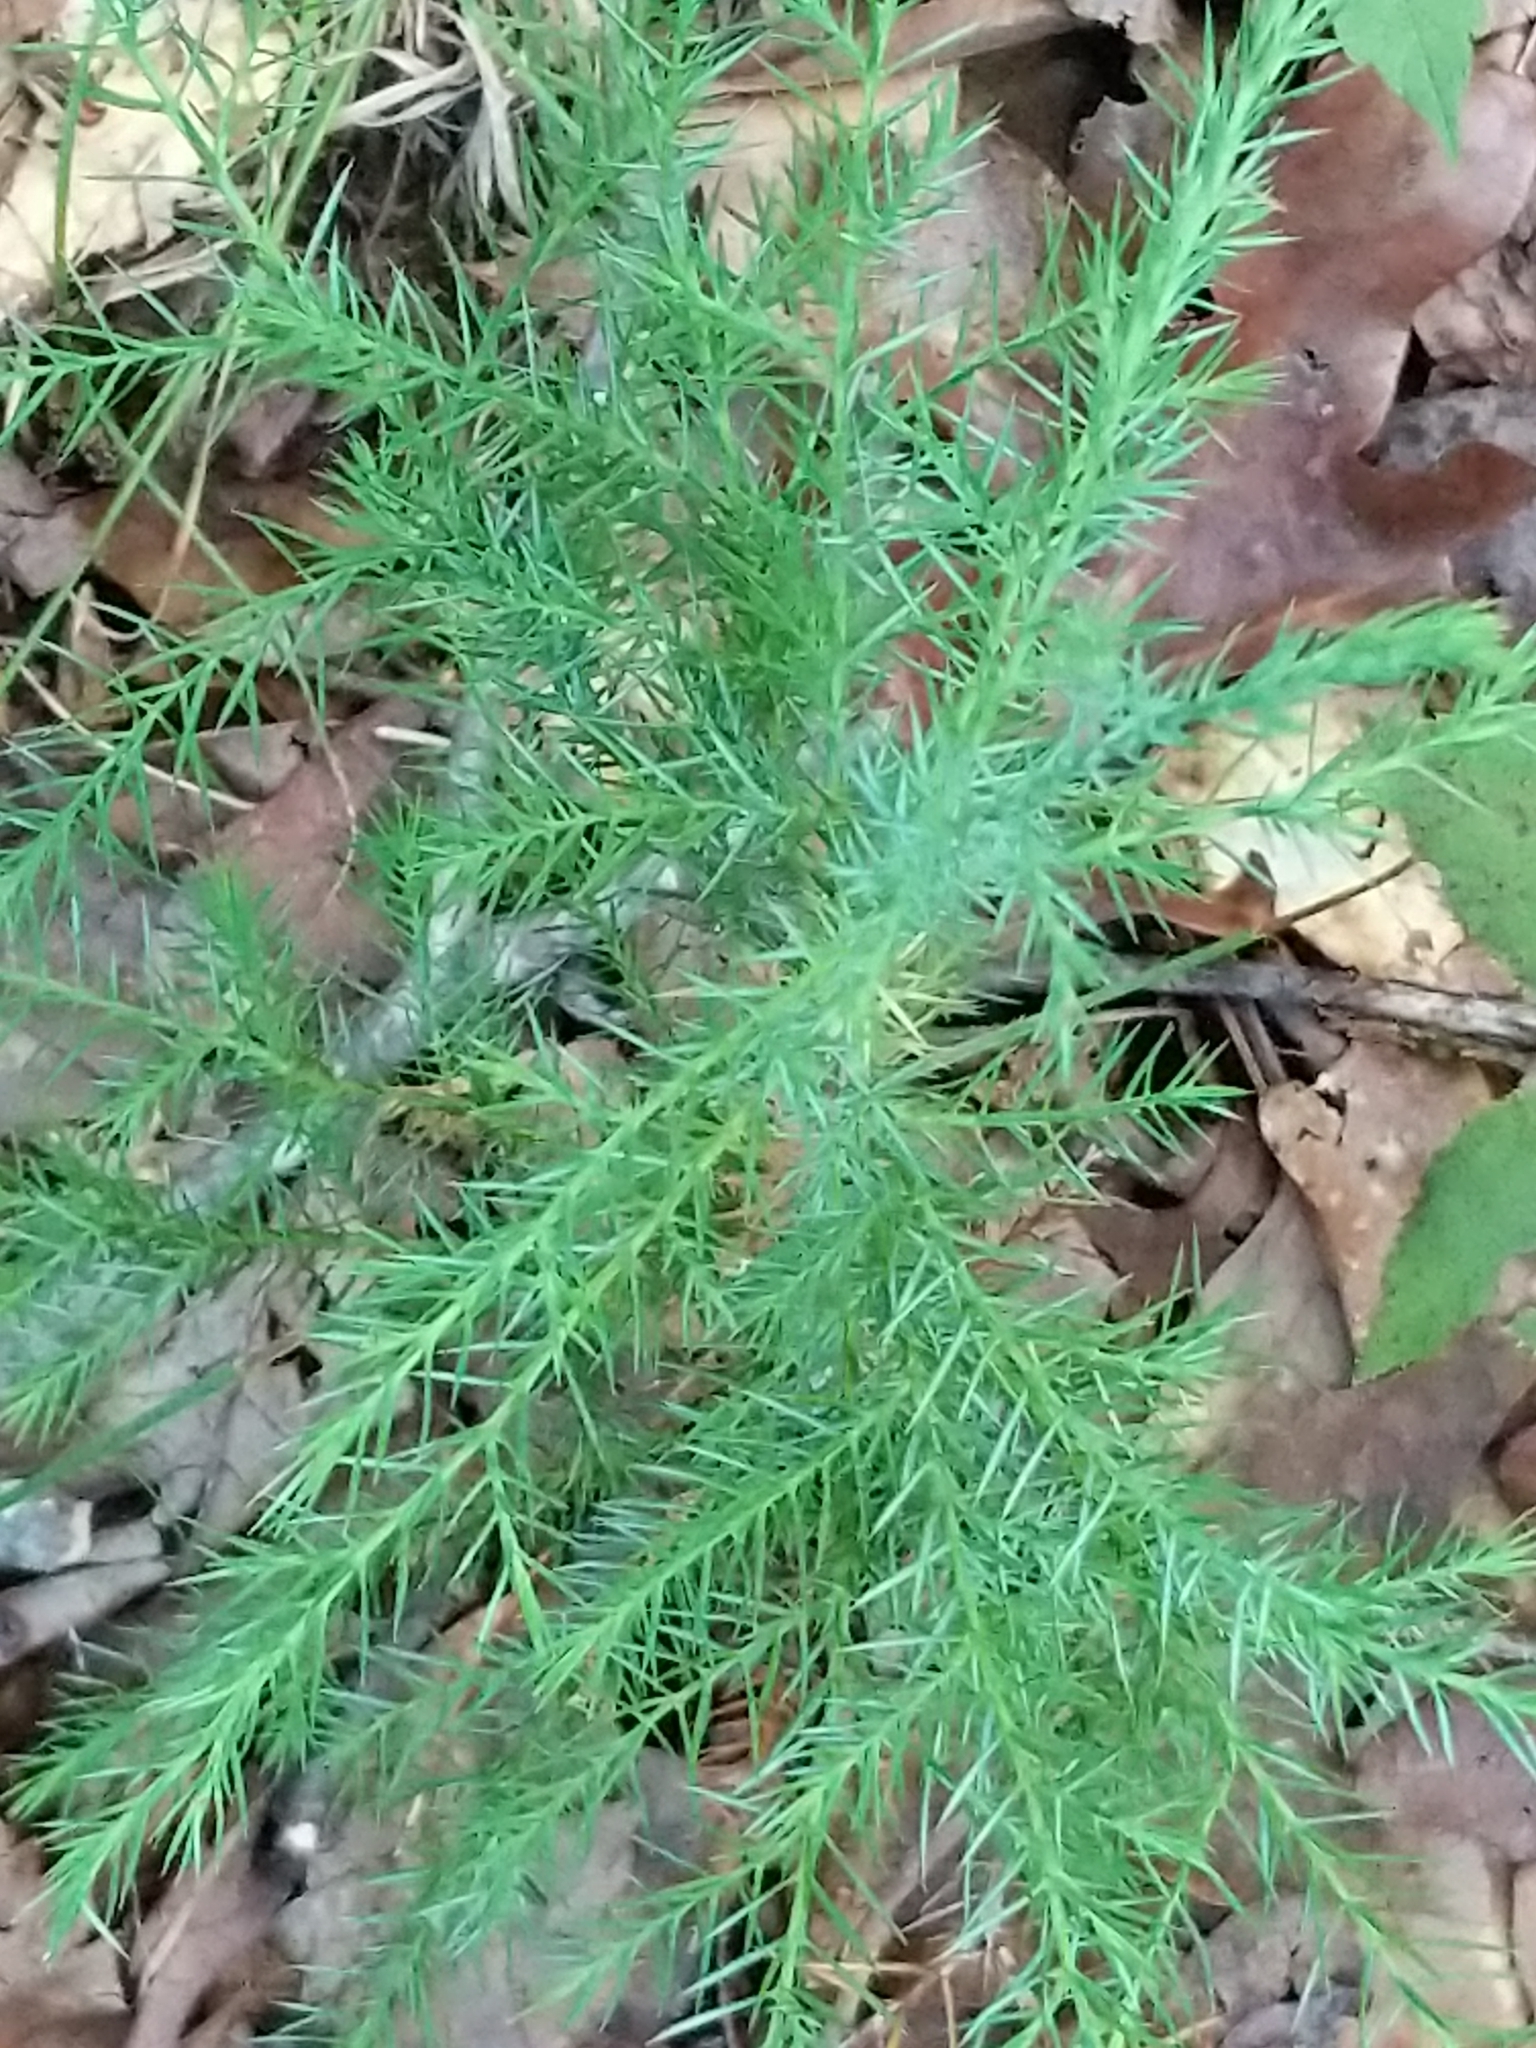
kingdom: Plantae
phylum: Tracheophyta
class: Pinopsida
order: Pinales
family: Cupressaceae
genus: Juniperus
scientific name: Juniperus virginiana
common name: Red juniper
